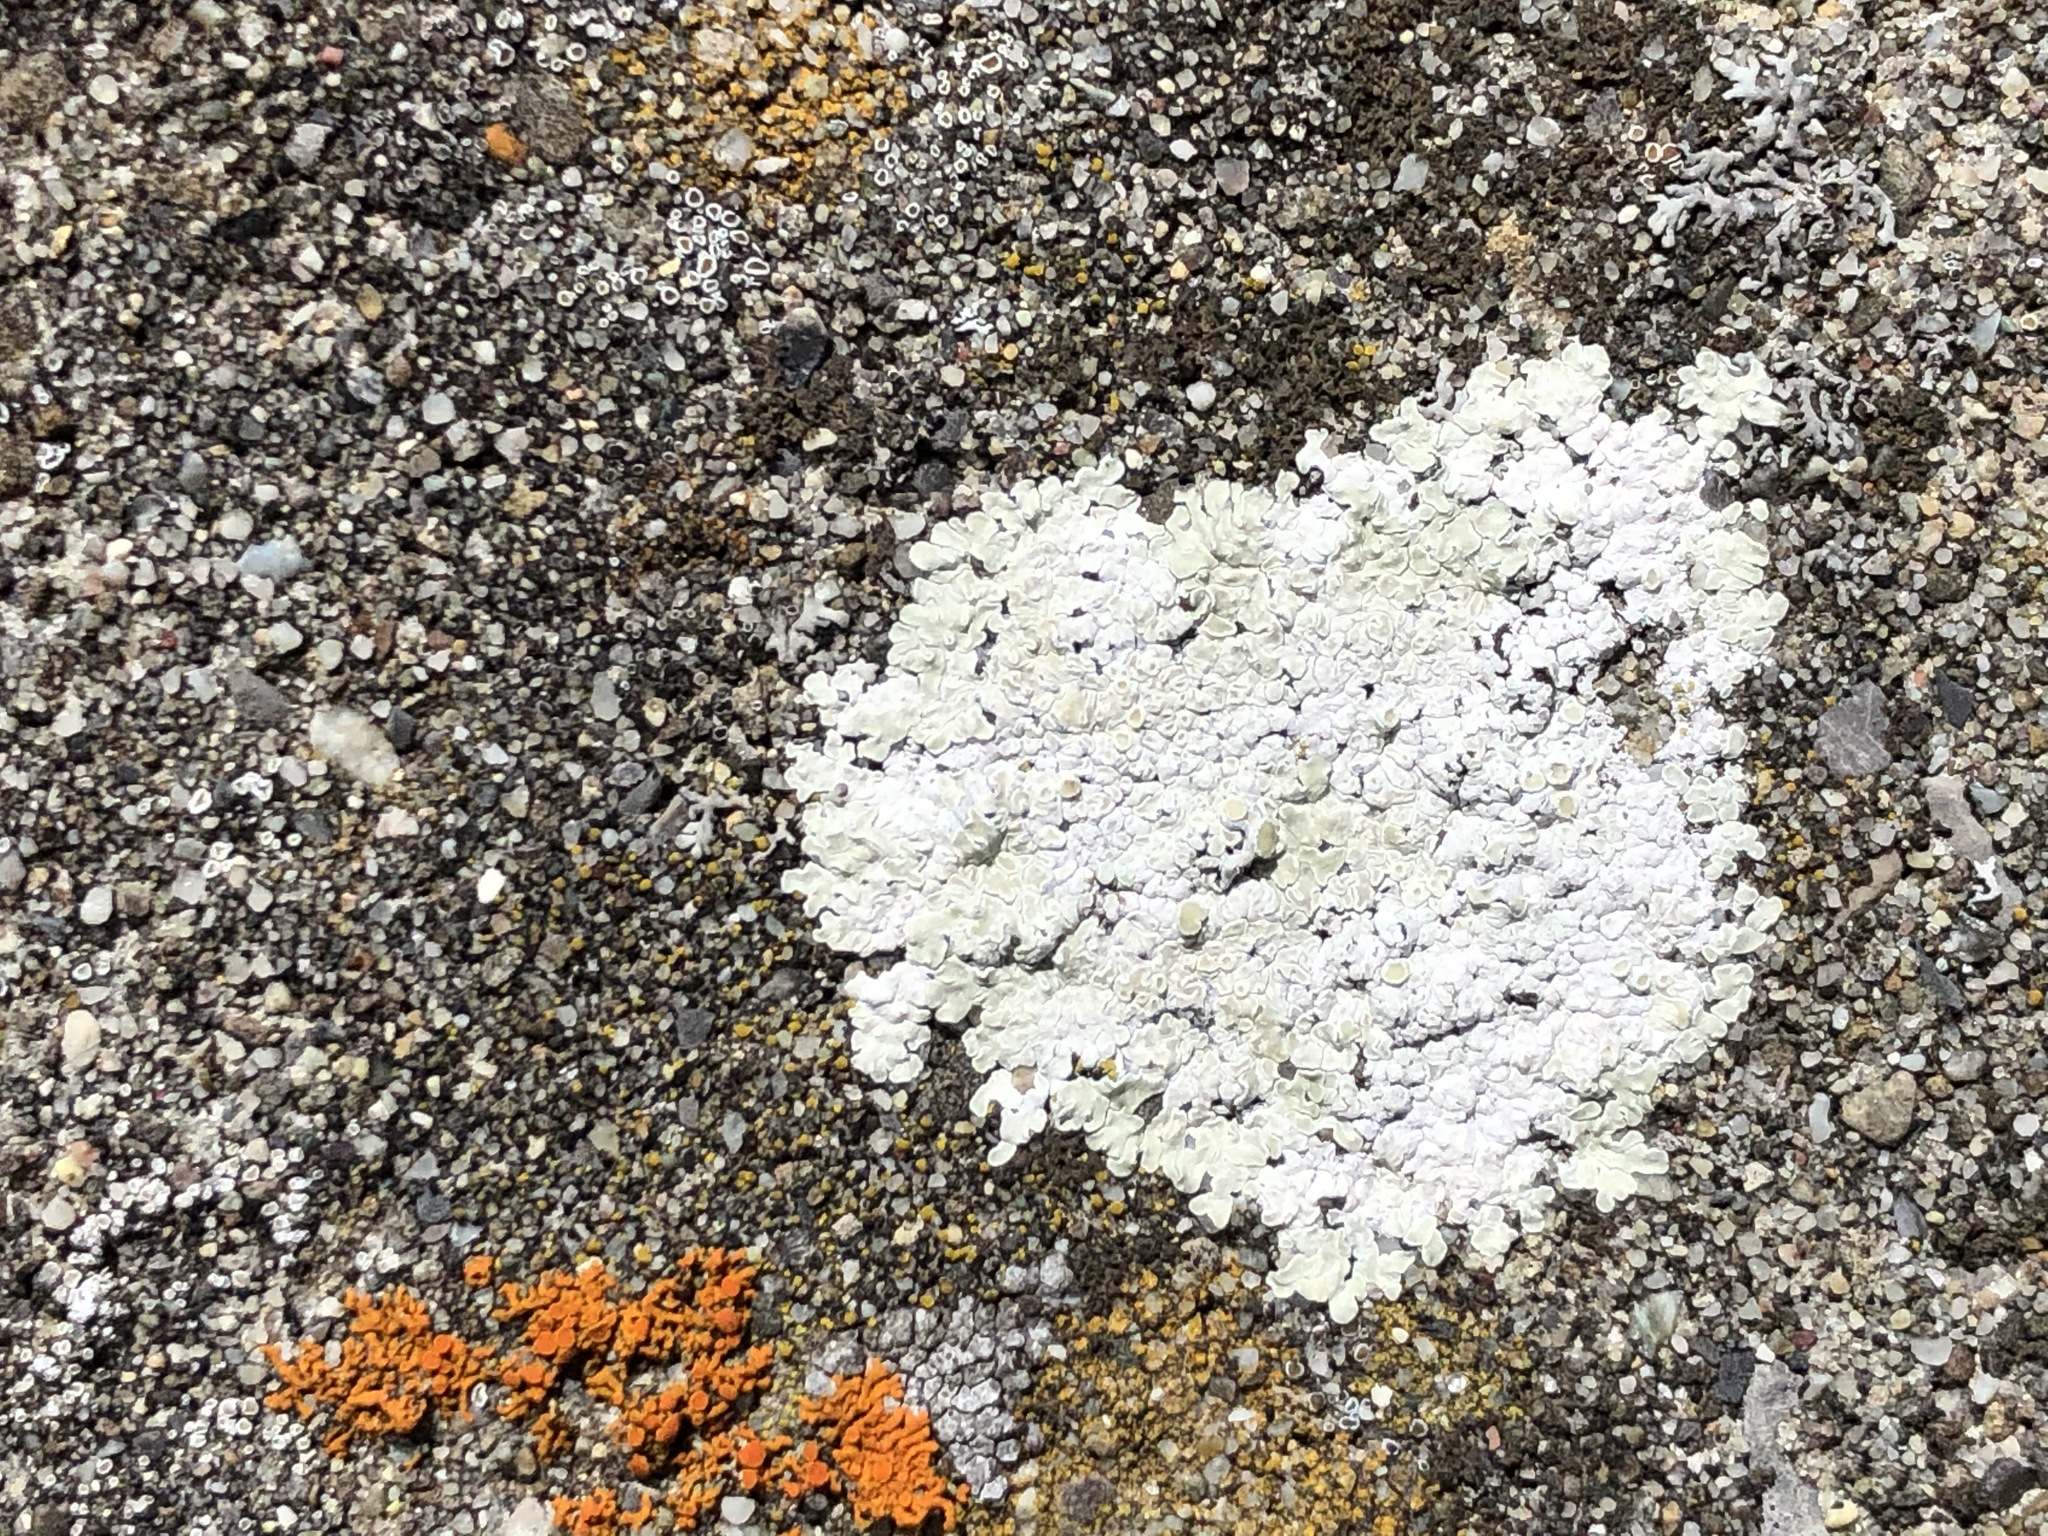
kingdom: Fungi
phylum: Ascomycota
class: Lecanoromycetes
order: Lecanorales
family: Lecanoraceae
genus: Protoparmeliopsis
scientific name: Protoparmeliopsis muralis
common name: Stonewall rim lichen
